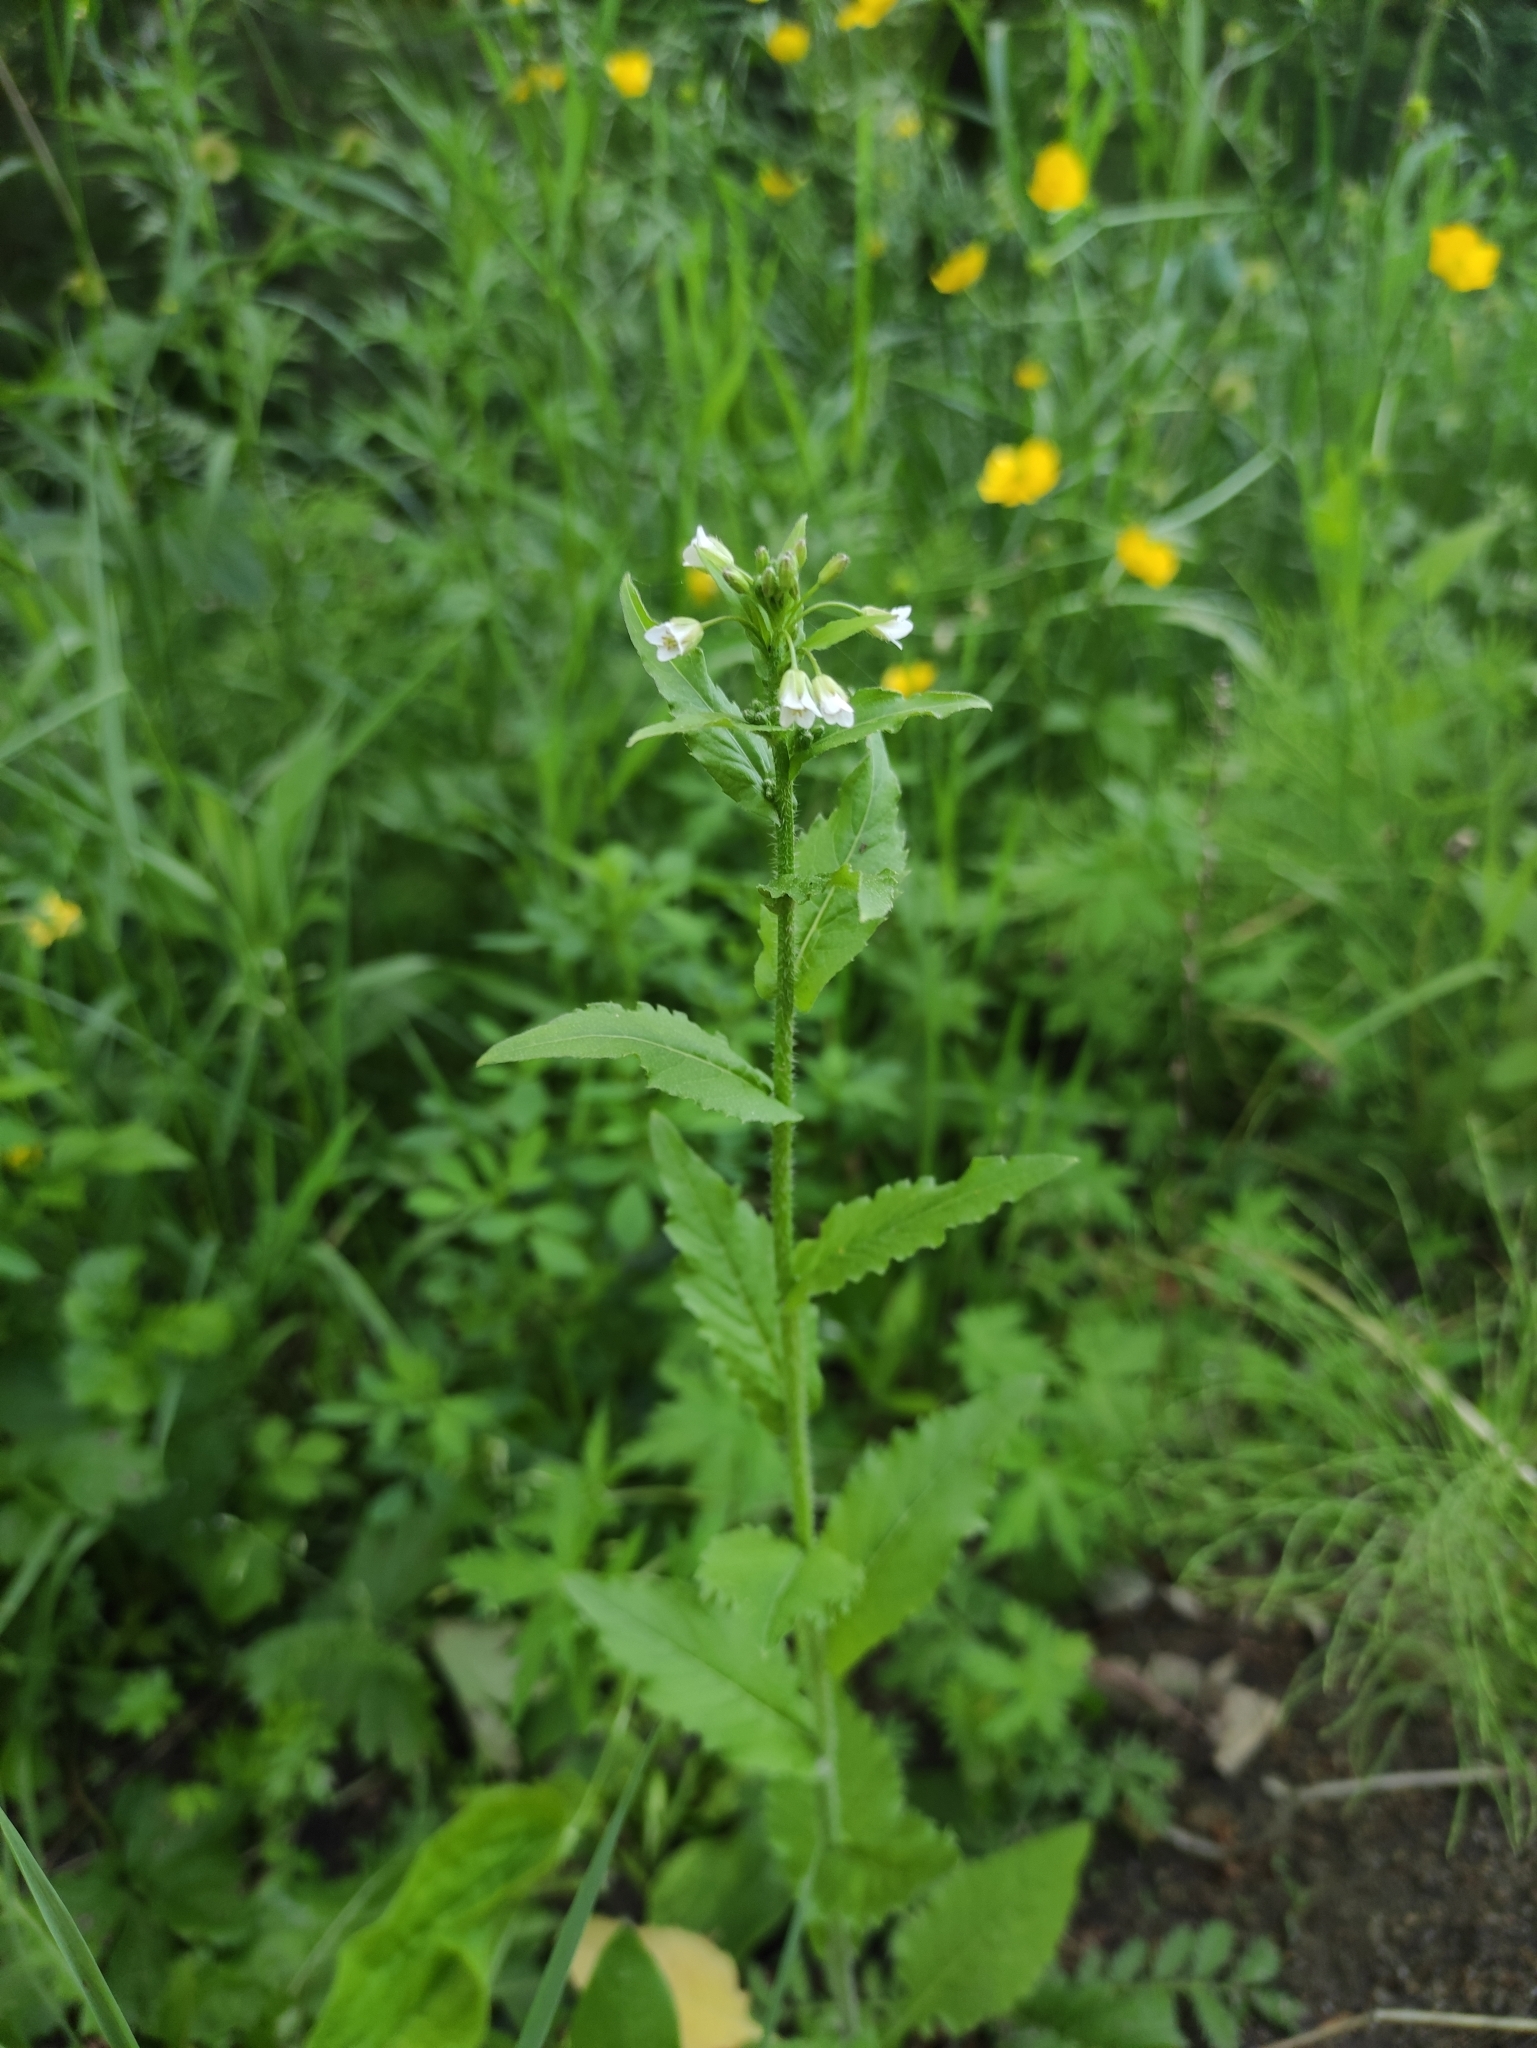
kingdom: Plantae
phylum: Tracheophyta
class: Magnoliopsida
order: Brassicales
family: Brassicaceae
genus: Catolobus
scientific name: Catolobus pendulus
